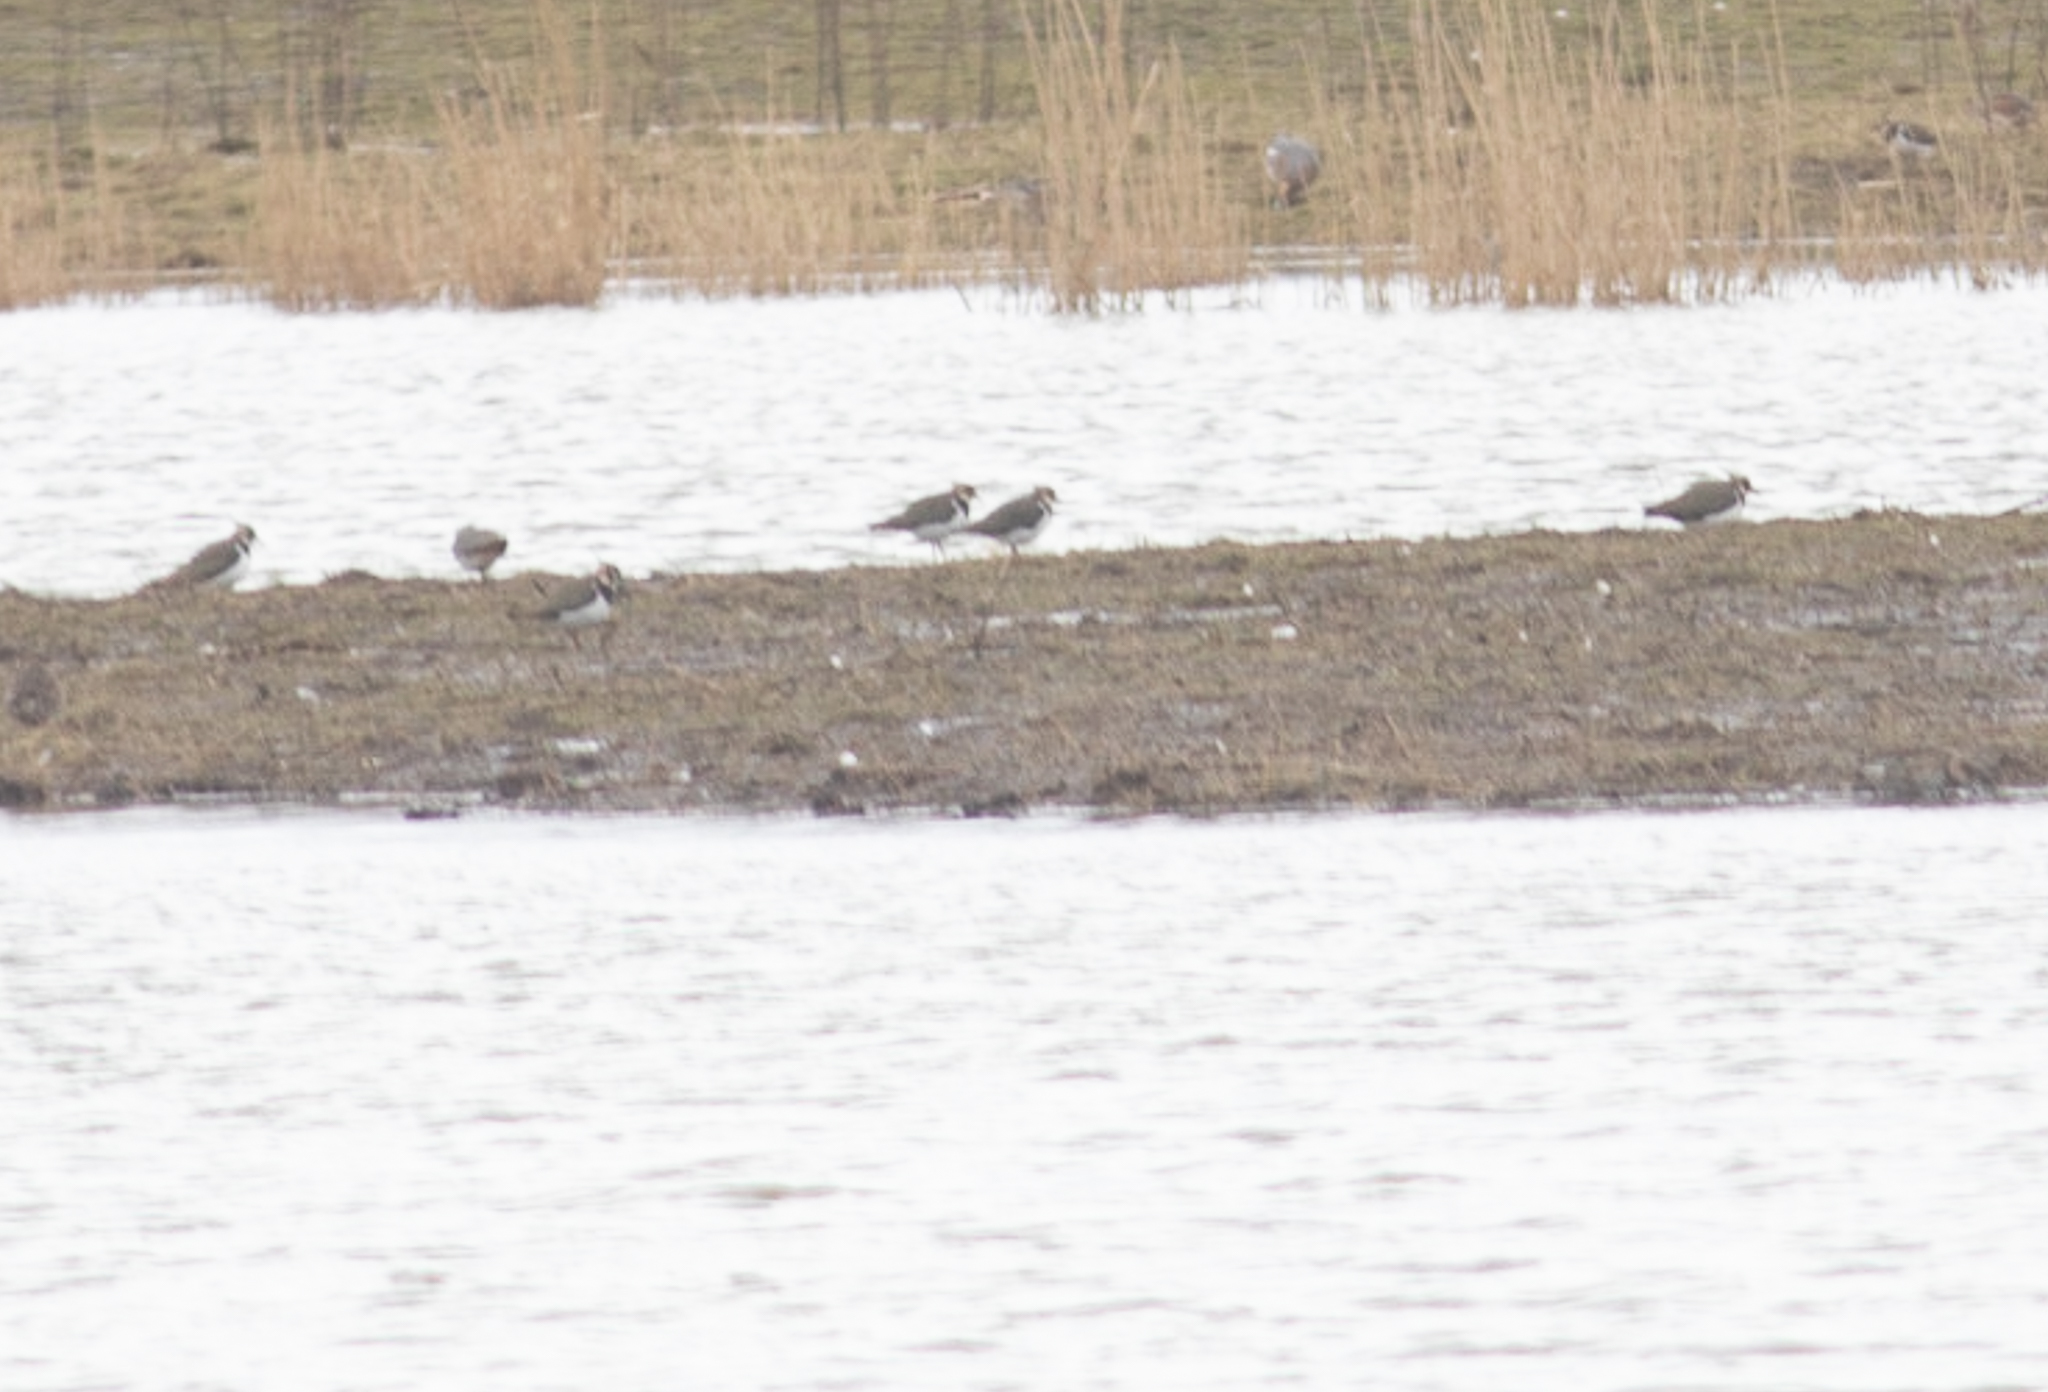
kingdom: Animalia
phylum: Chordata
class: Aves
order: Charadriiformes
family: Charadriidae
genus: Vanellus
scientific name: Vanellus vanellus
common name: Northern lapwing
